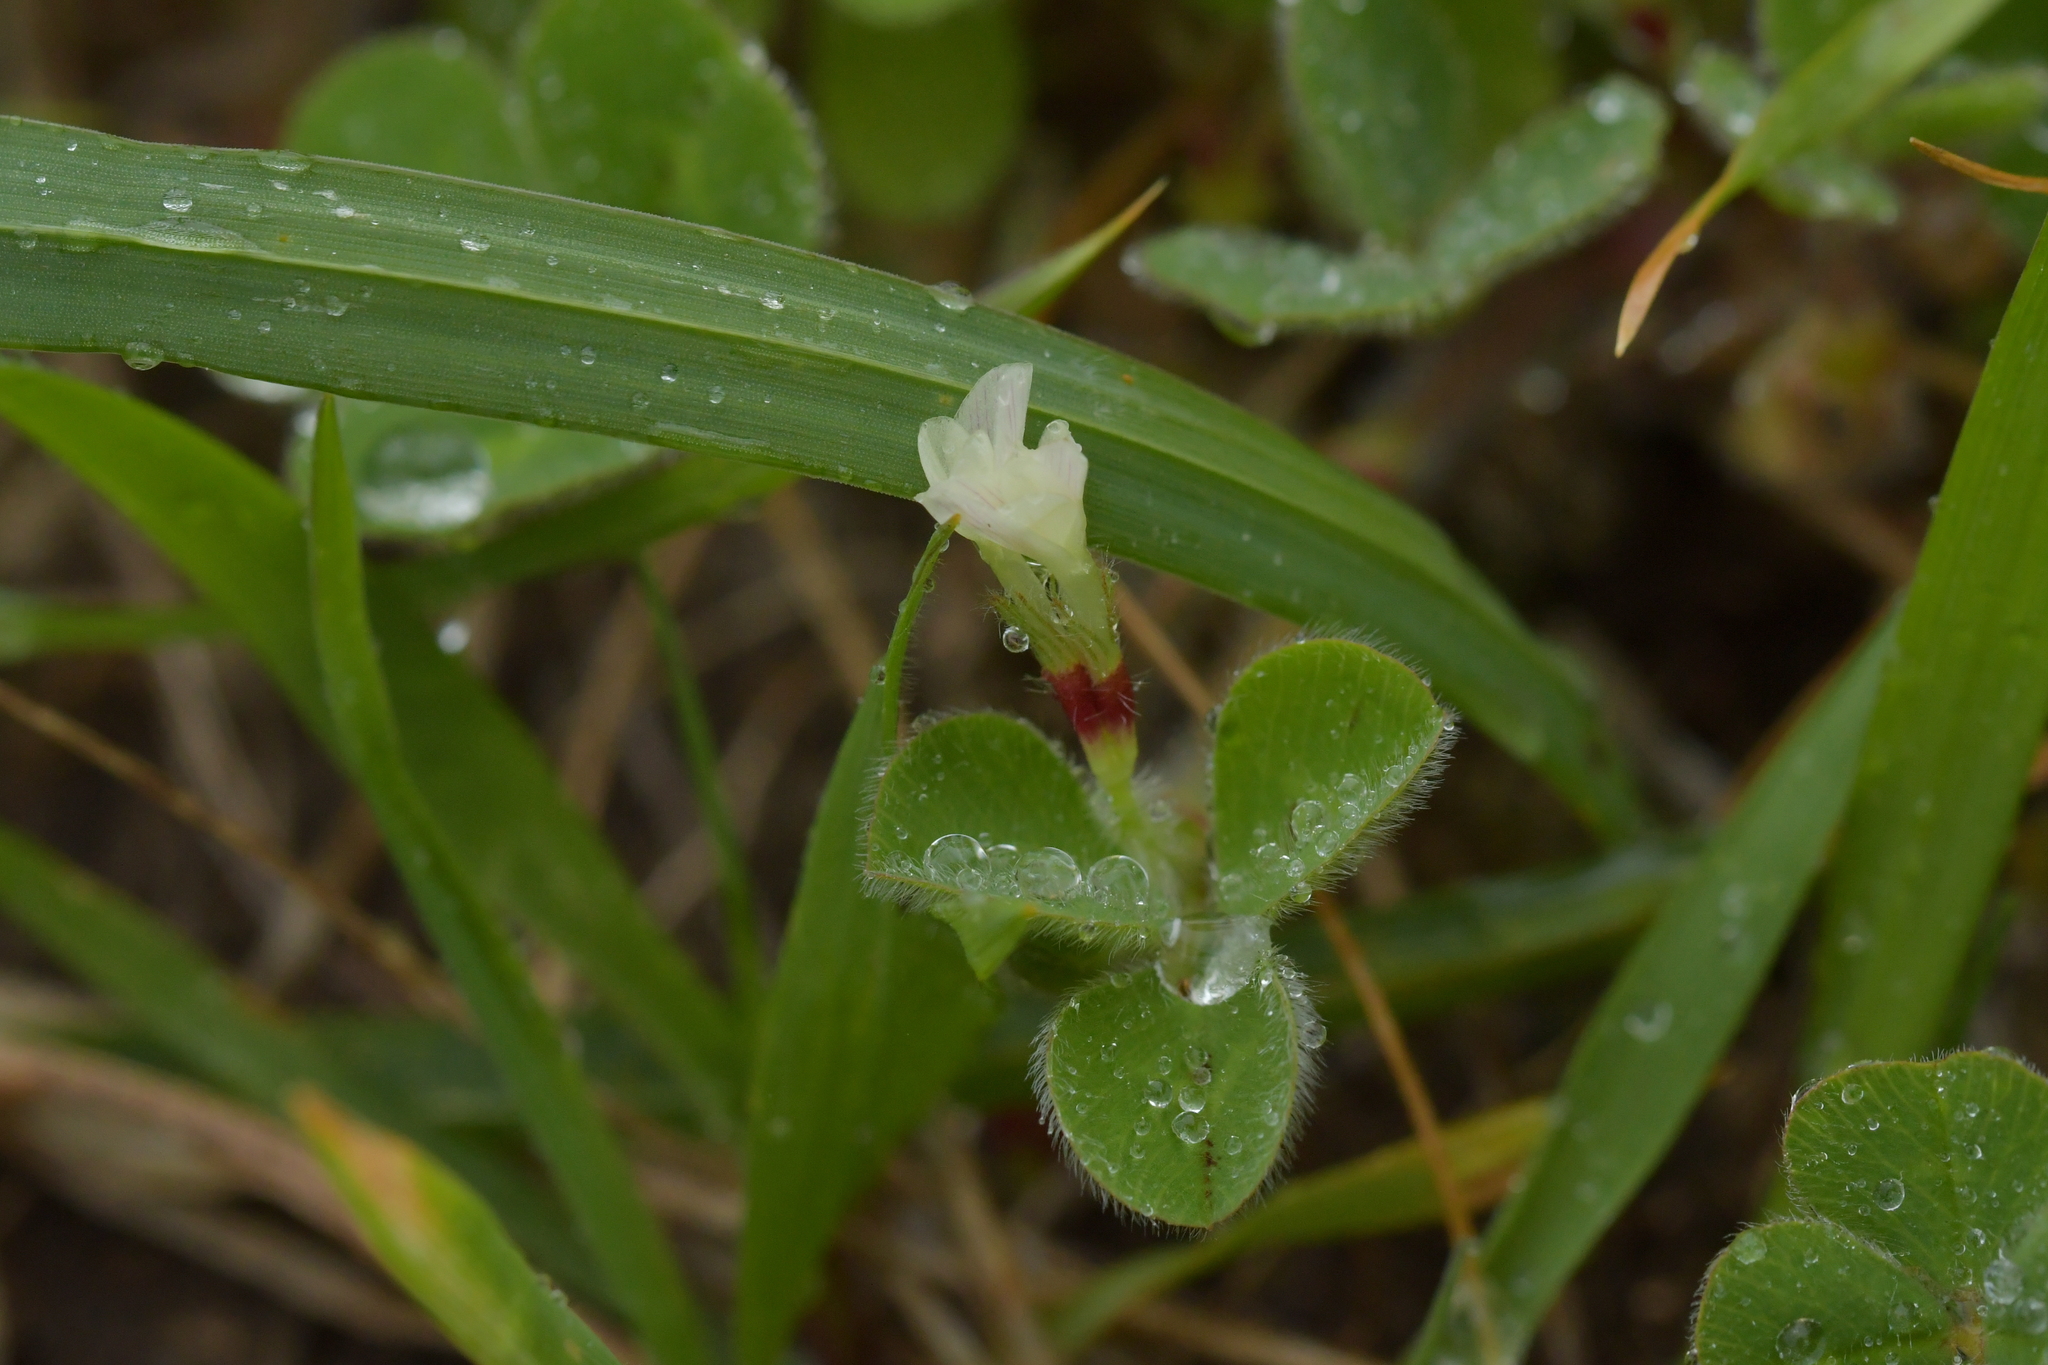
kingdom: Plantae
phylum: Tracheophyta
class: Magnoliopsida
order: Fabales
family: Fabaceae
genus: Trifolium
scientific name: Trifolium subterraneum
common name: Subterranean clover
